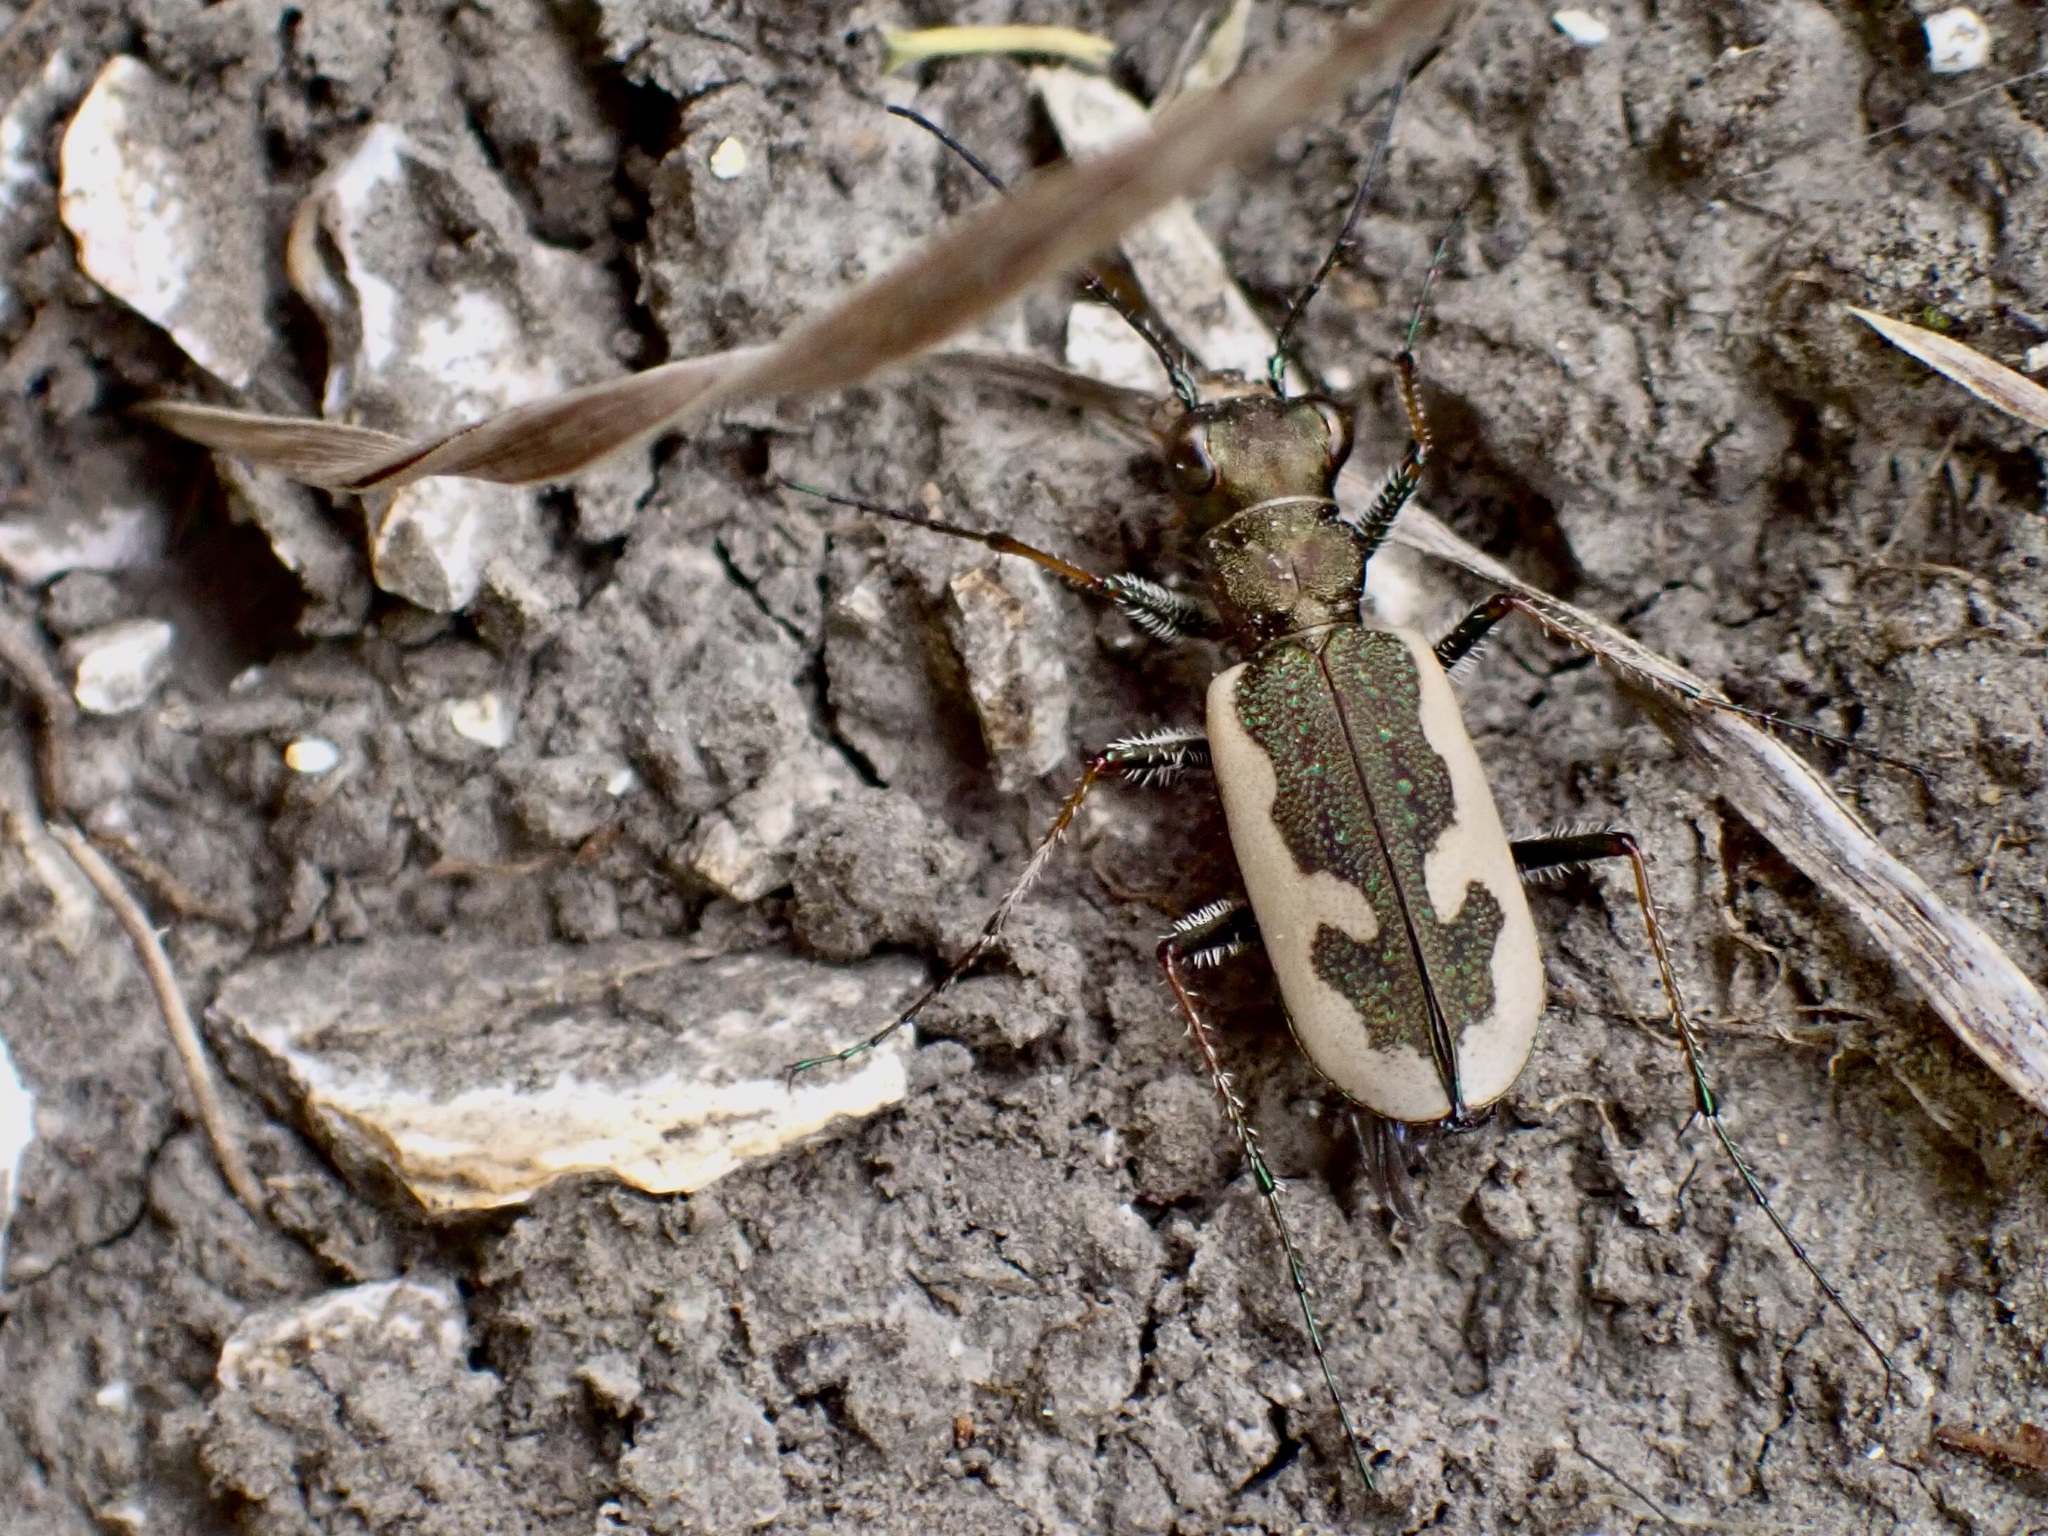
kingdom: Animalia
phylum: Arthropoda
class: Insecta
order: Coleoptera
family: Carabidae
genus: Neocicindela
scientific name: Neocicindela latecincta
